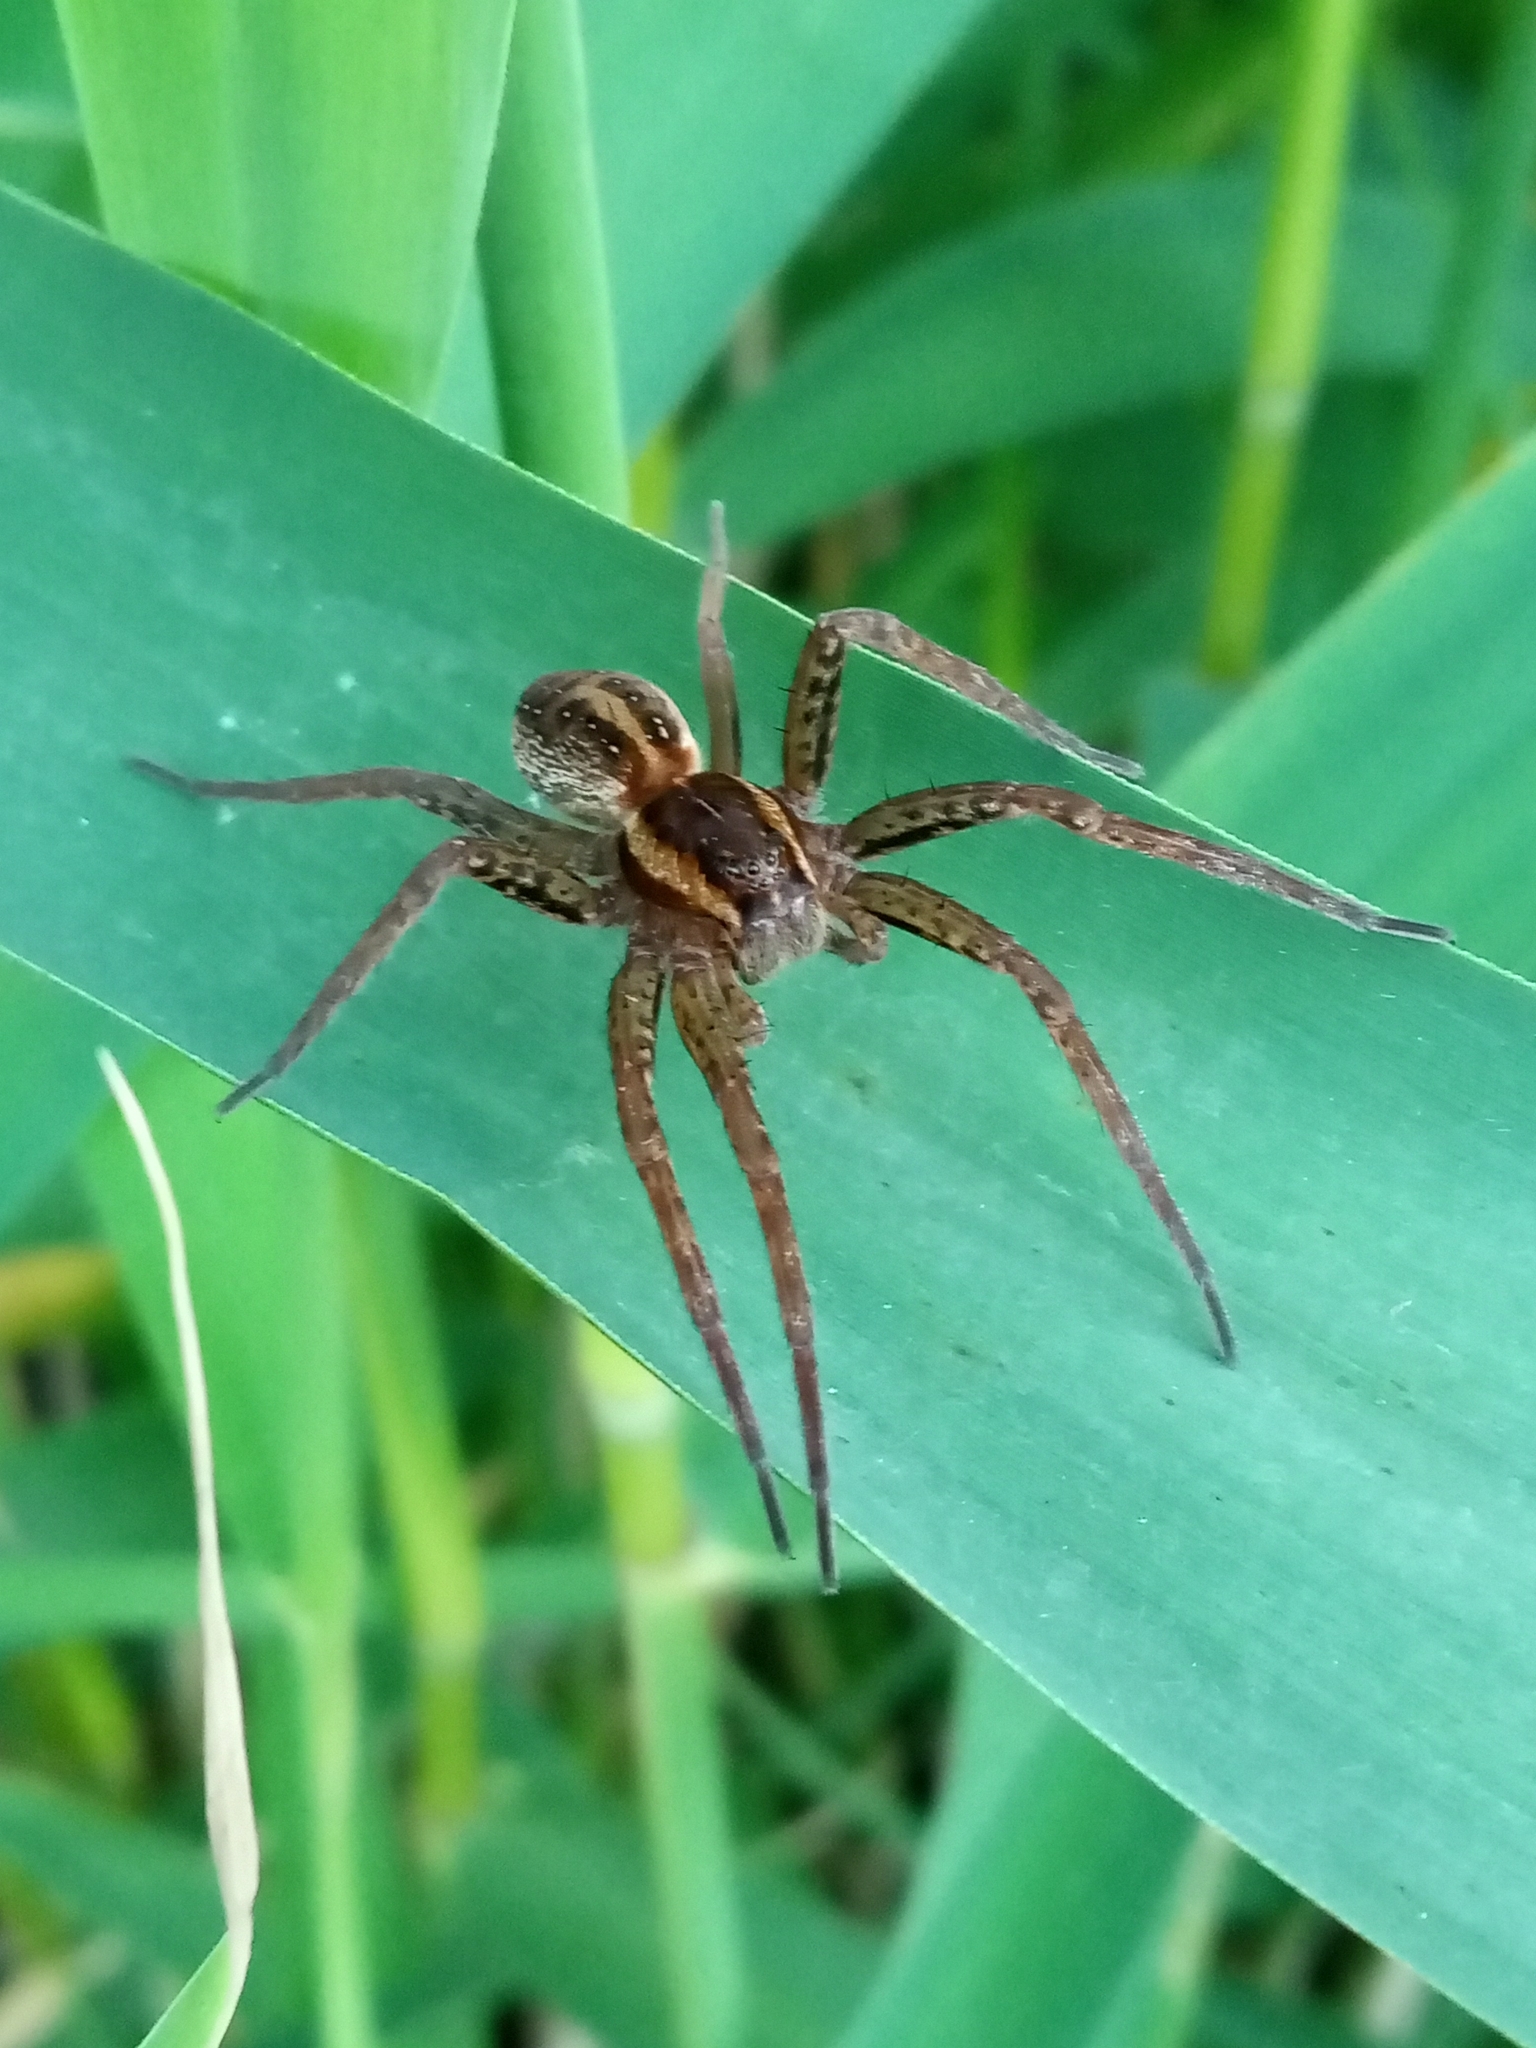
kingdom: Animalia
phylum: Arthropoda
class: Arachnida
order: Araneae
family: Pisauridae
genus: Dolomedes
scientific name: Dolomedes
